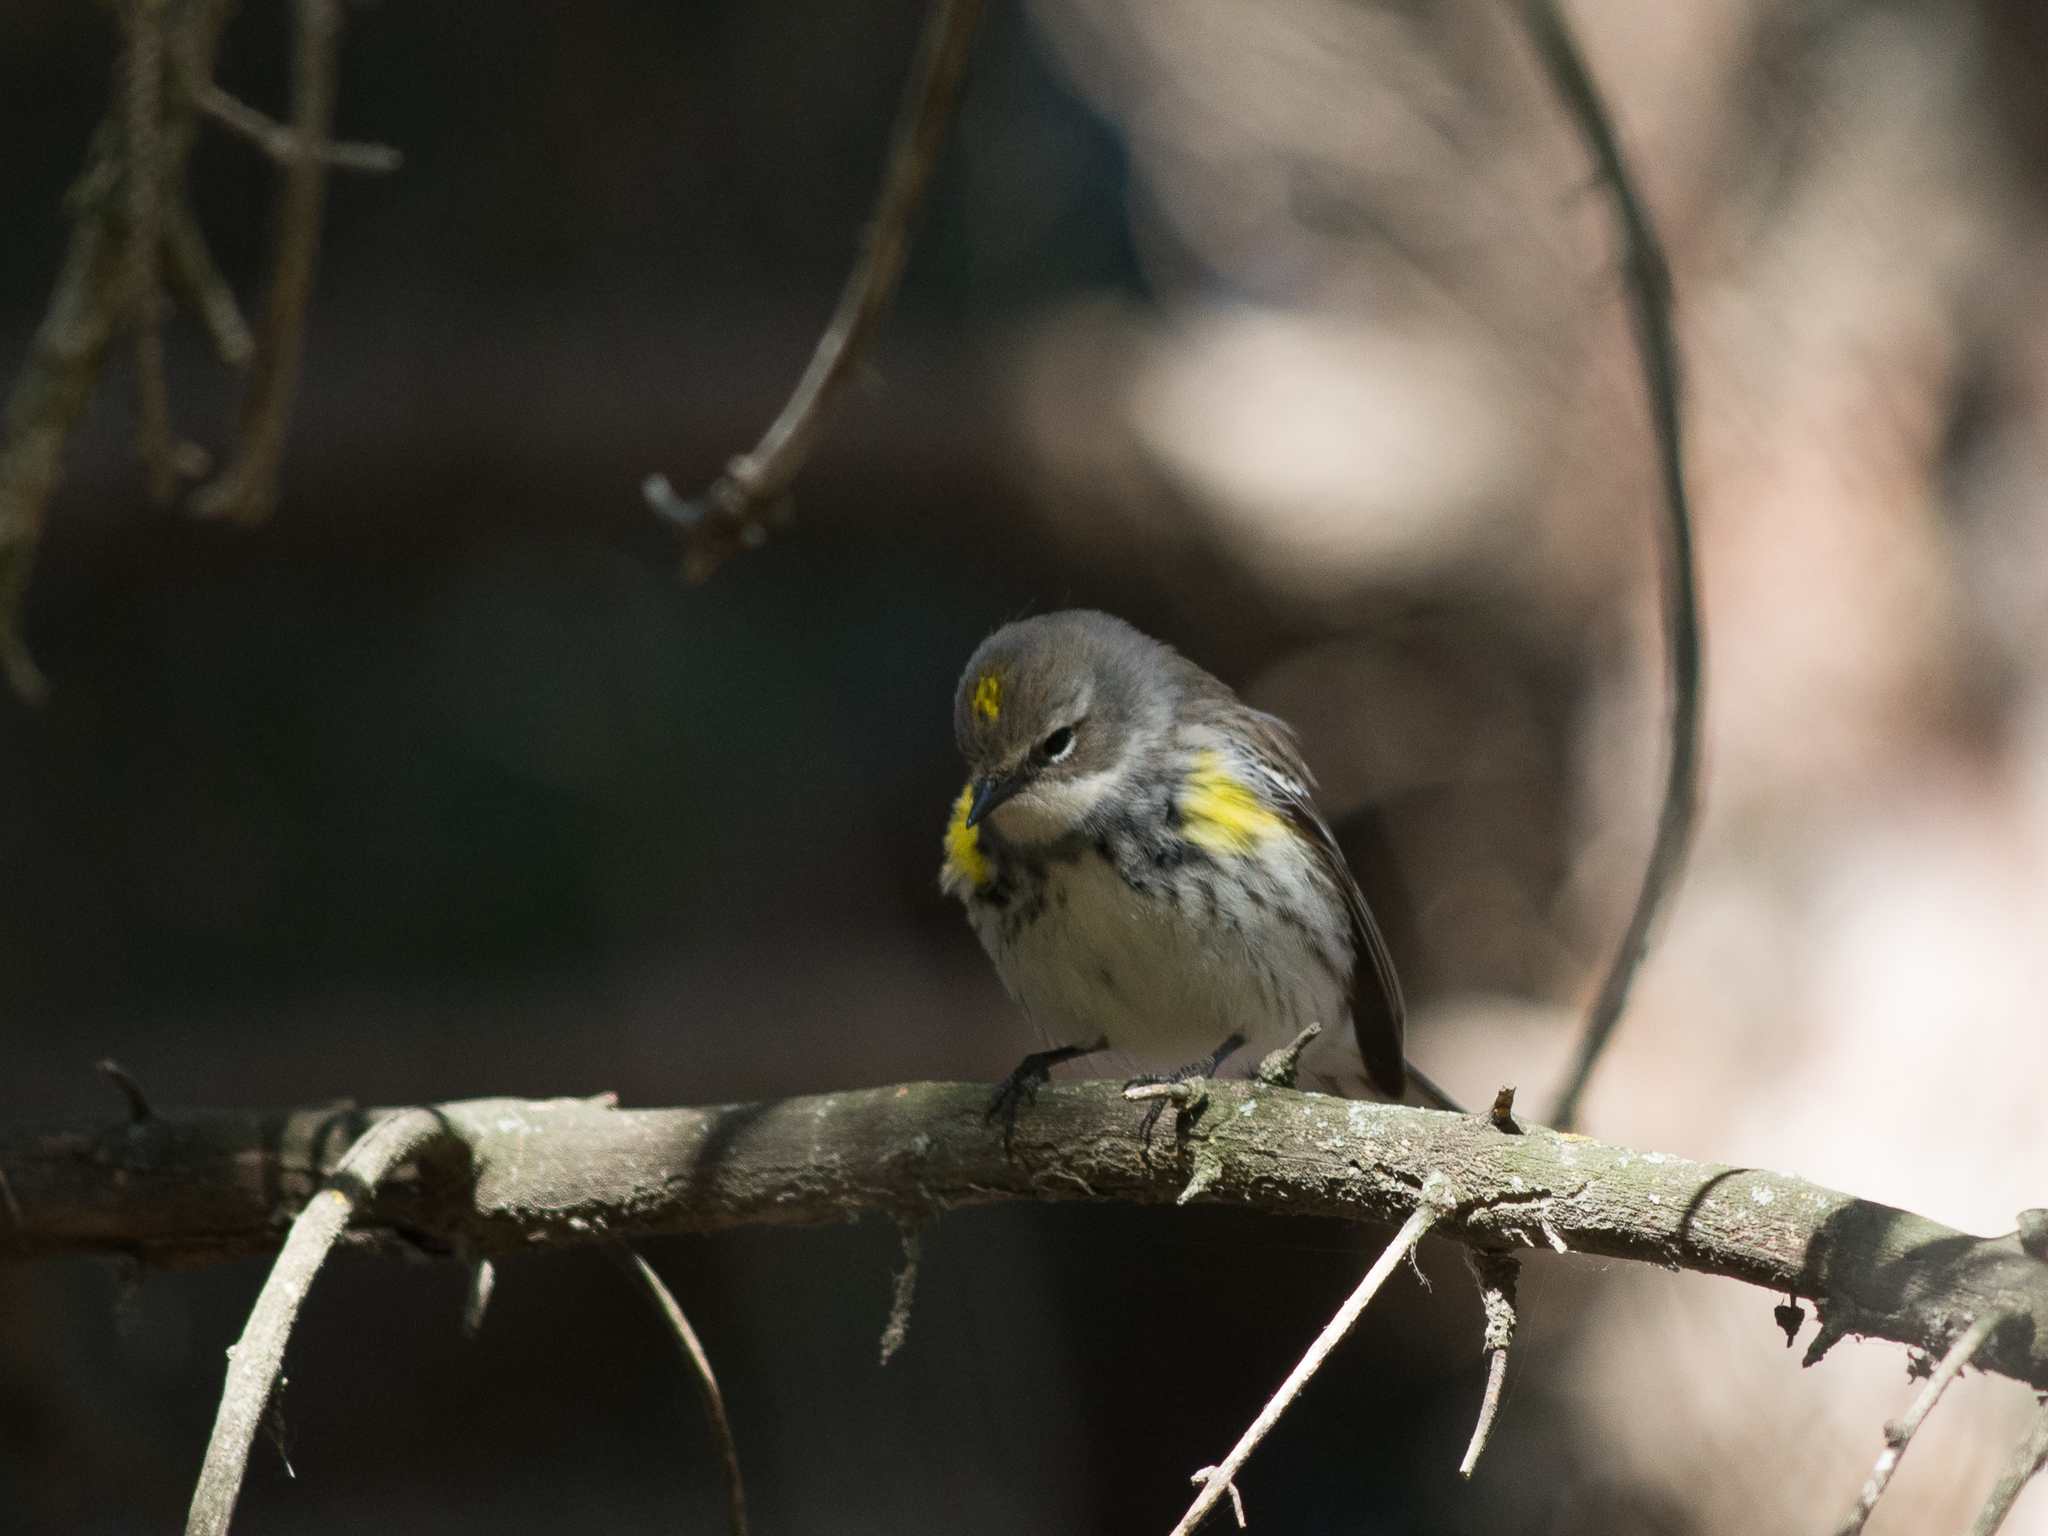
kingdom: Animalia
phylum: Chordata
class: Aves
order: Passeriformes
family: Parulidae
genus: Setophaga
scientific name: Setophaga coronata
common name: Myrtle warbler
